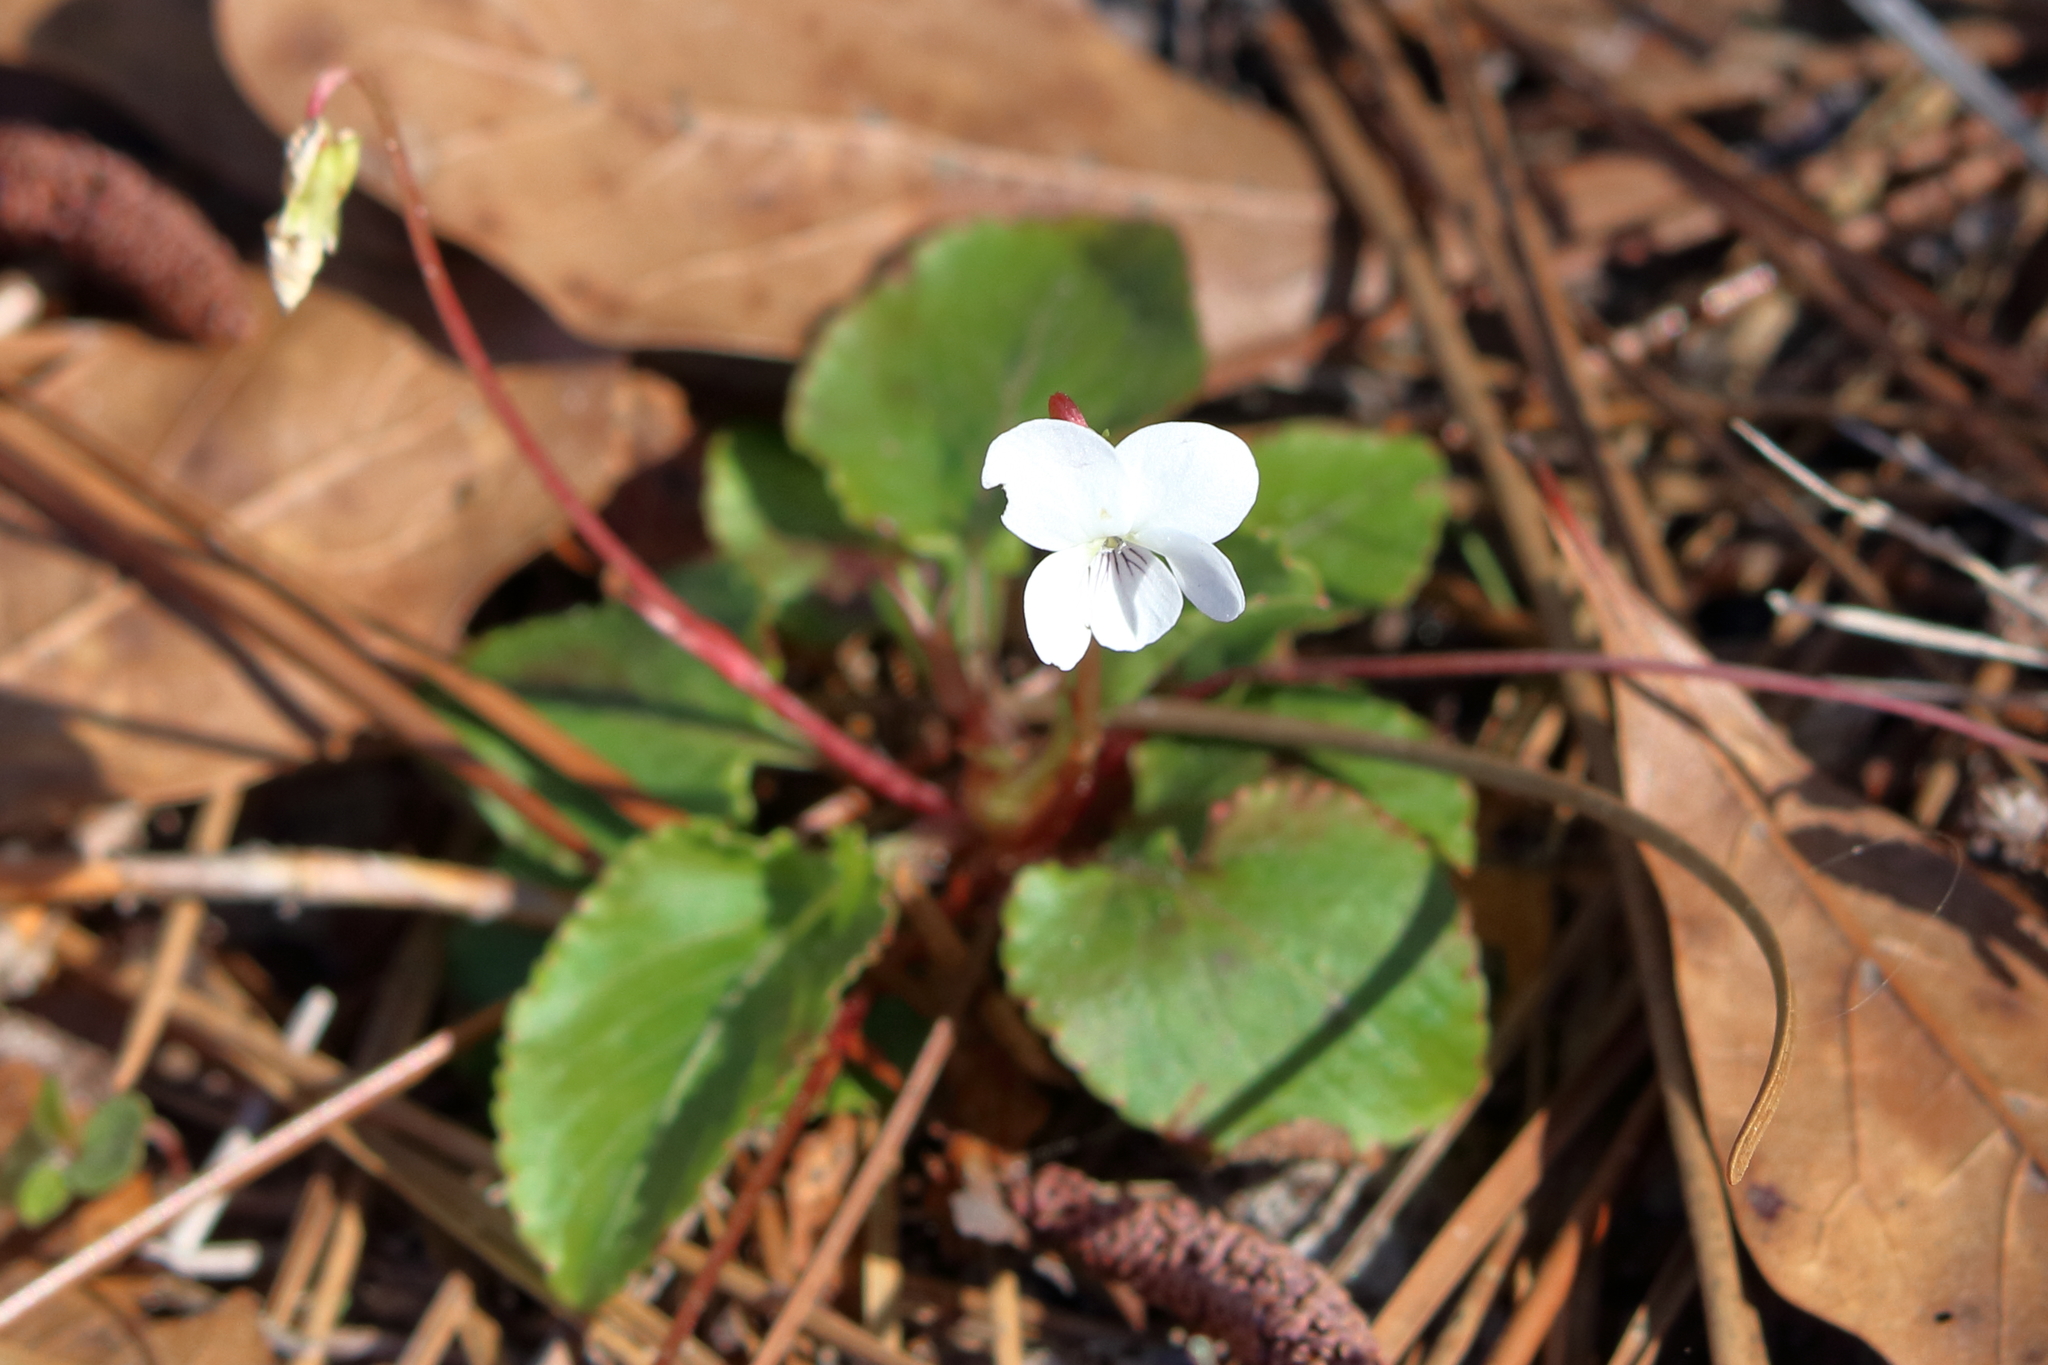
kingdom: Plantae
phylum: Tracheophyta
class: Magnoliopsida
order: Malpighiales
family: Violaceae
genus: Viola
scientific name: Viola primulifolia
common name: Primrose-leaf violet
